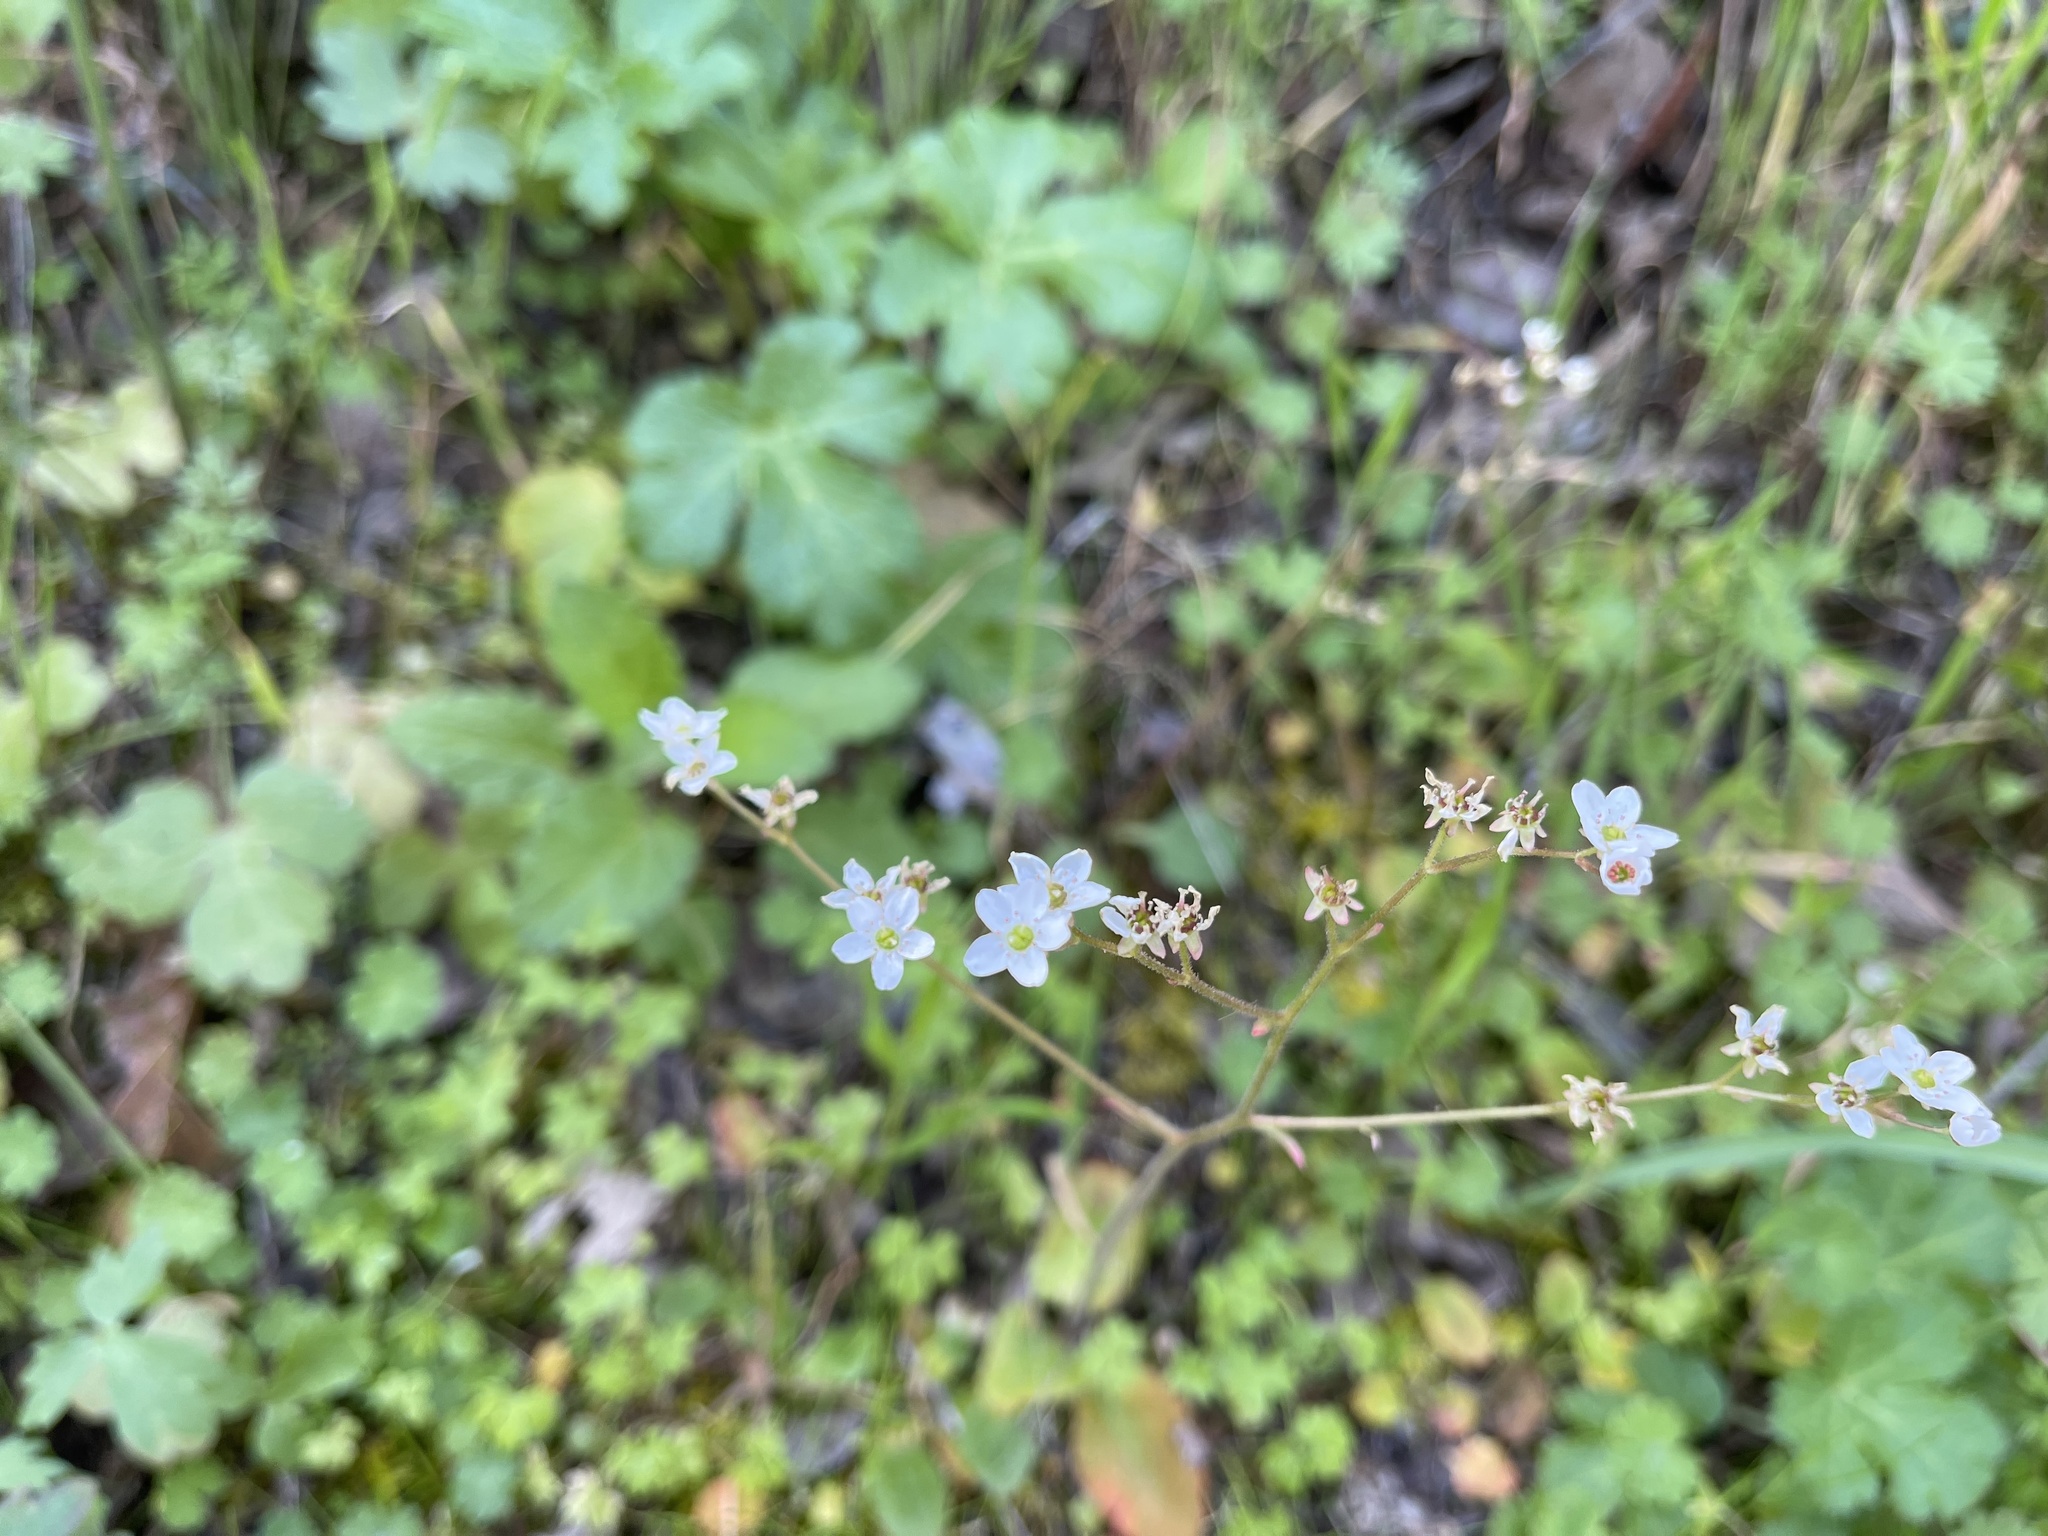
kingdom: Plantae
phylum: Tracheophyta
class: Magnoliopsida
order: Saxifragales
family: Saxifragaceae
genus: Micranthes
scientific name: Micranthes californica
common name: California saxifrage
